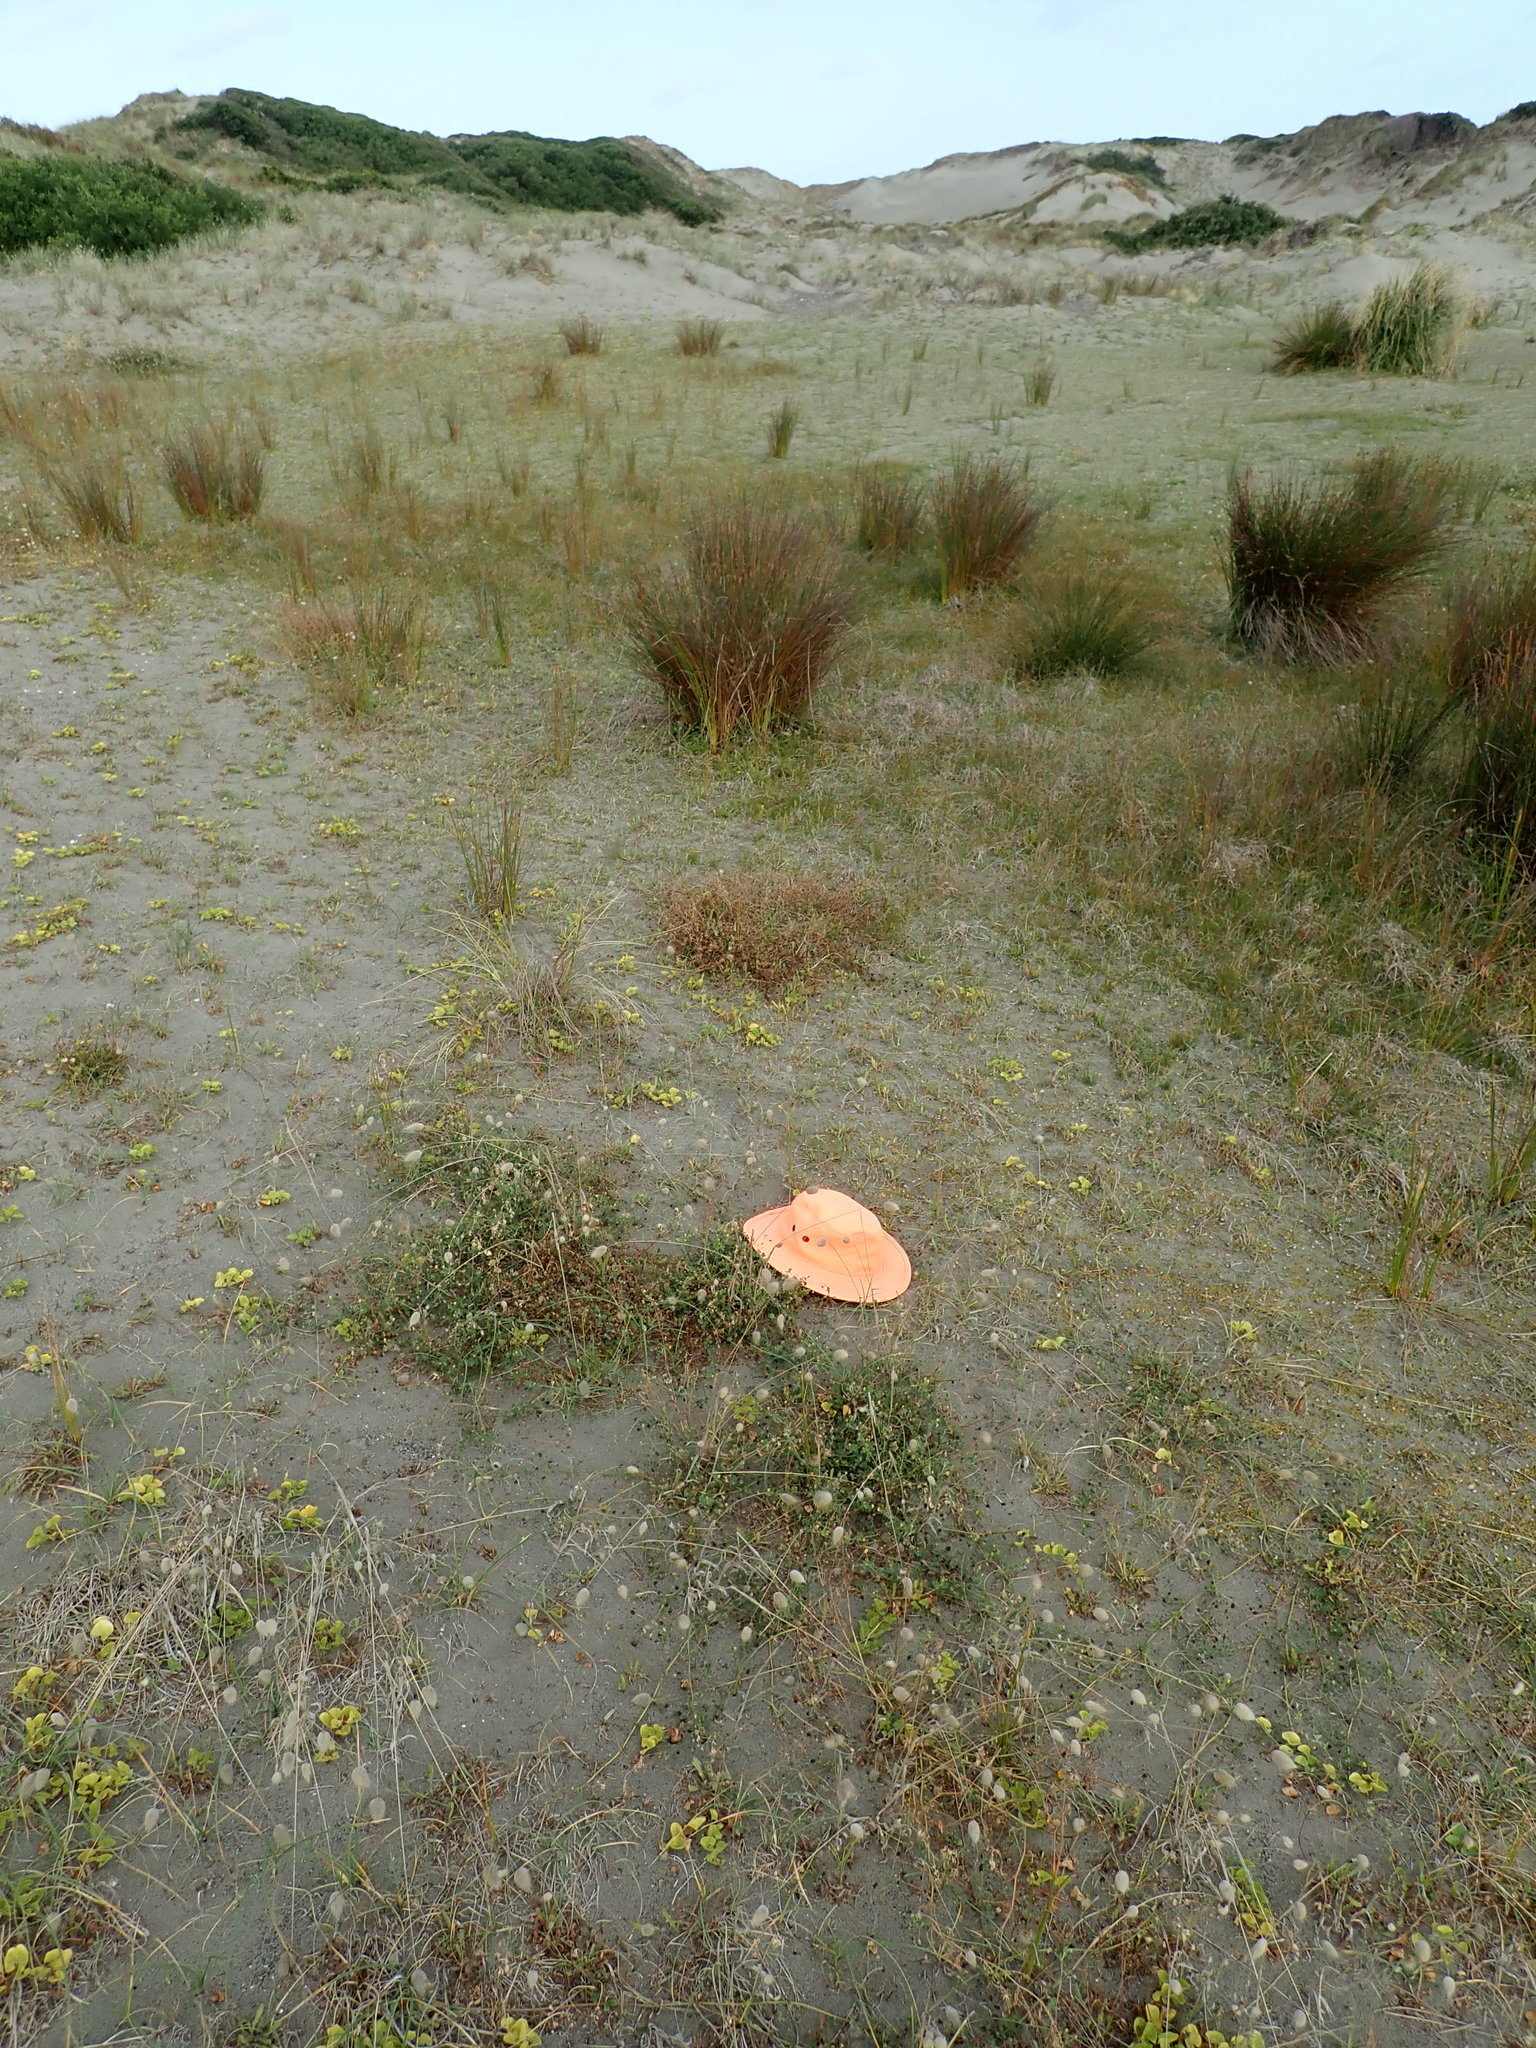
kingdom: Plantae
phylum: Tracheophyta
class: Magnoliopsida
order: Fabales
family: Fabaceae
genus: Medicago
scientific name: Medicago lupulina
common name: Black medick
